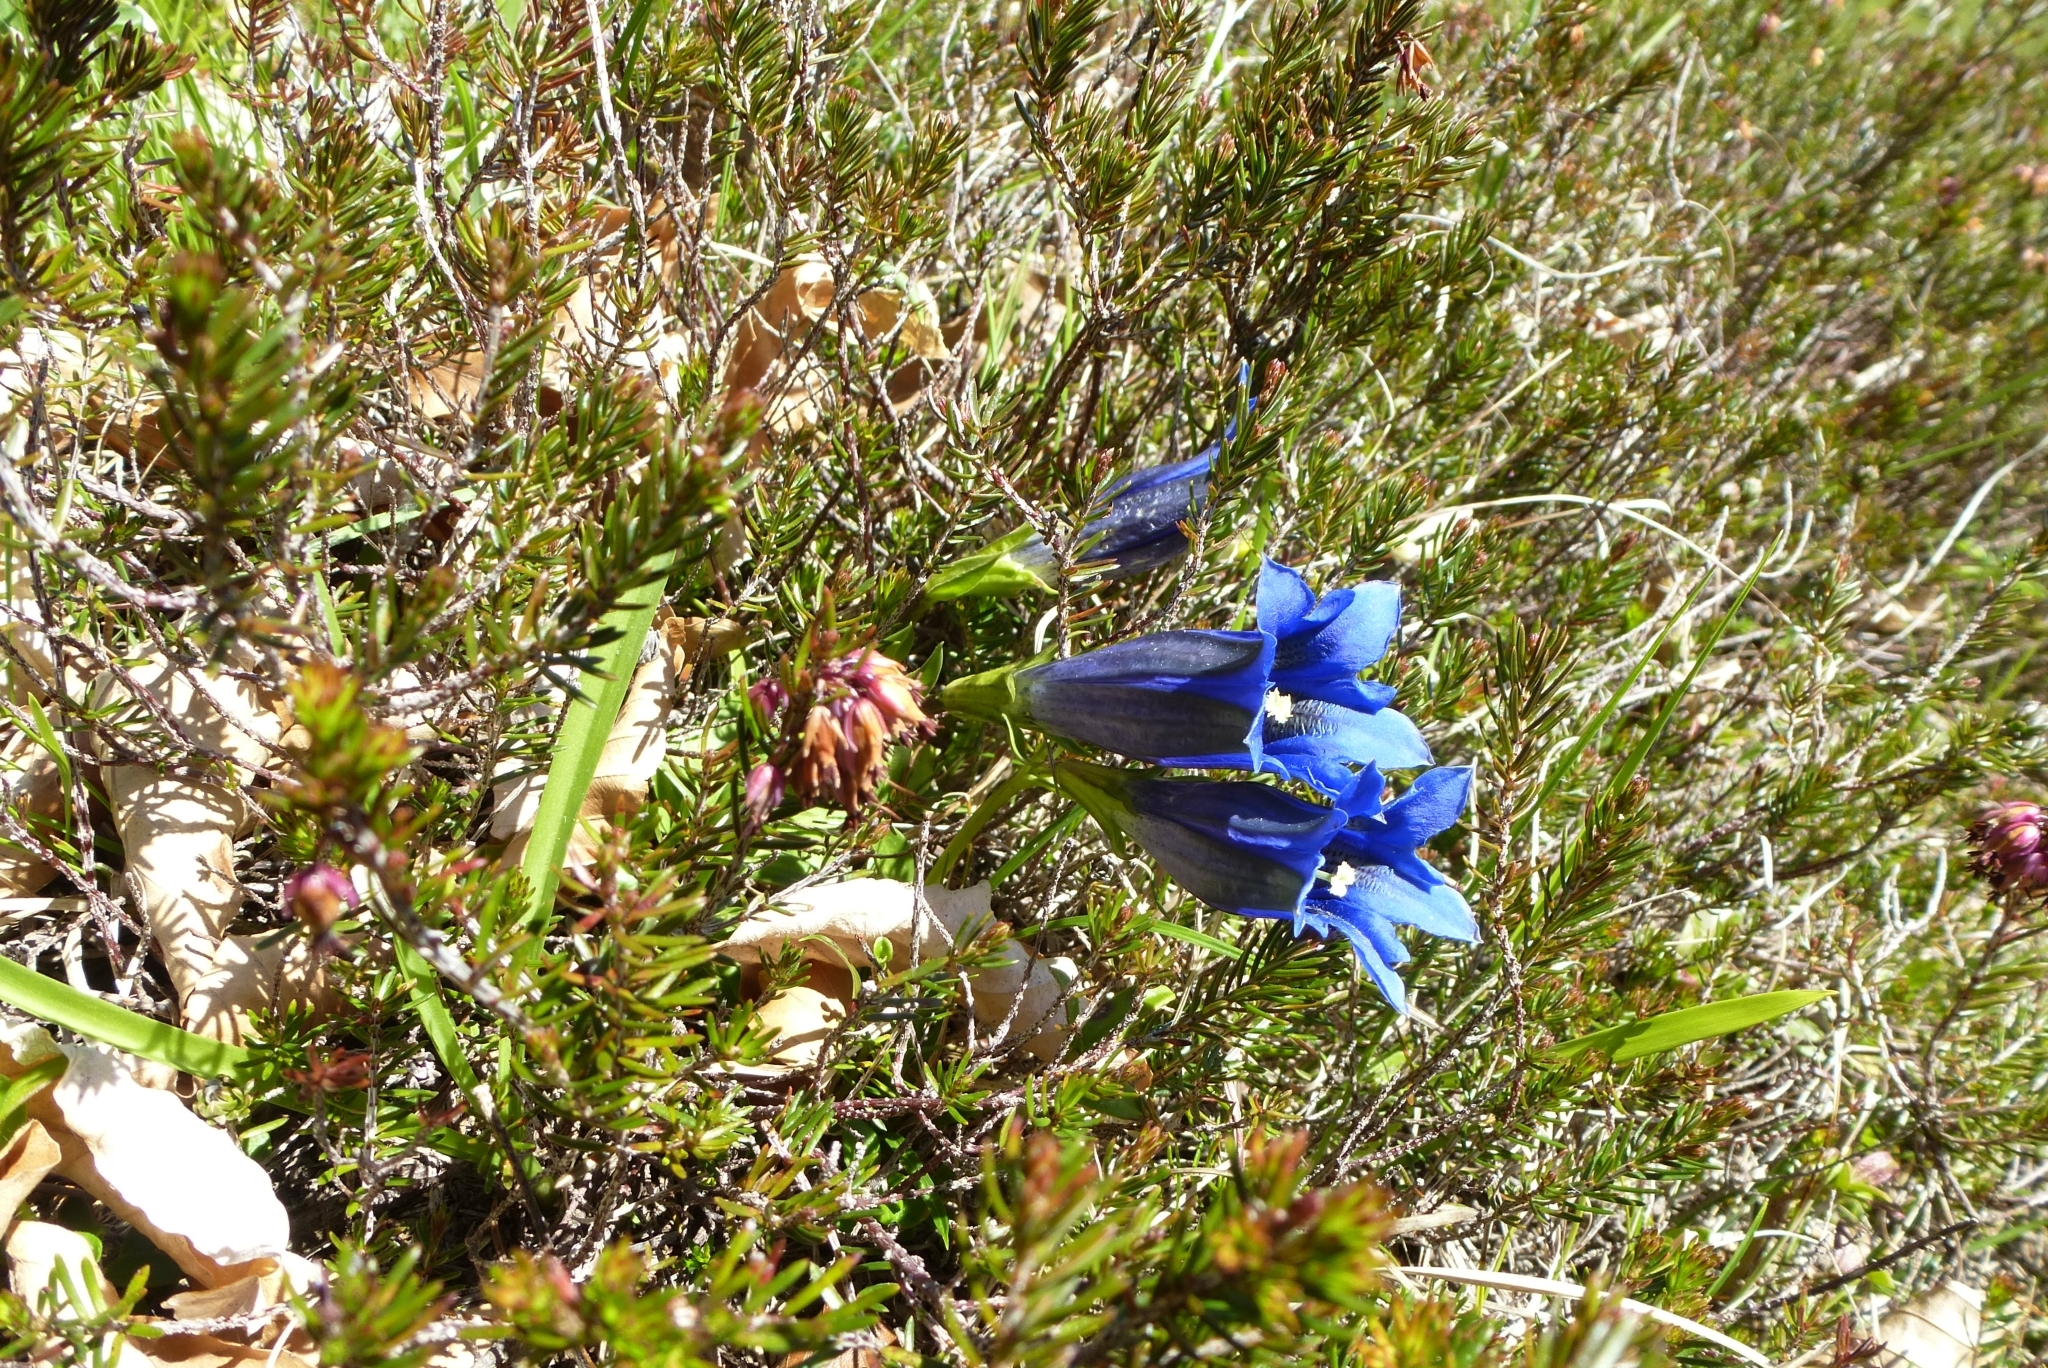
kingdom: Plantae
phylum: Tracheophyta
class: Magnoliopsida
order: Gentianales
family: Gentianaceae
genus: Gentiana
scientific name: Gentiana acaulis
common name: Trumpet gentian
